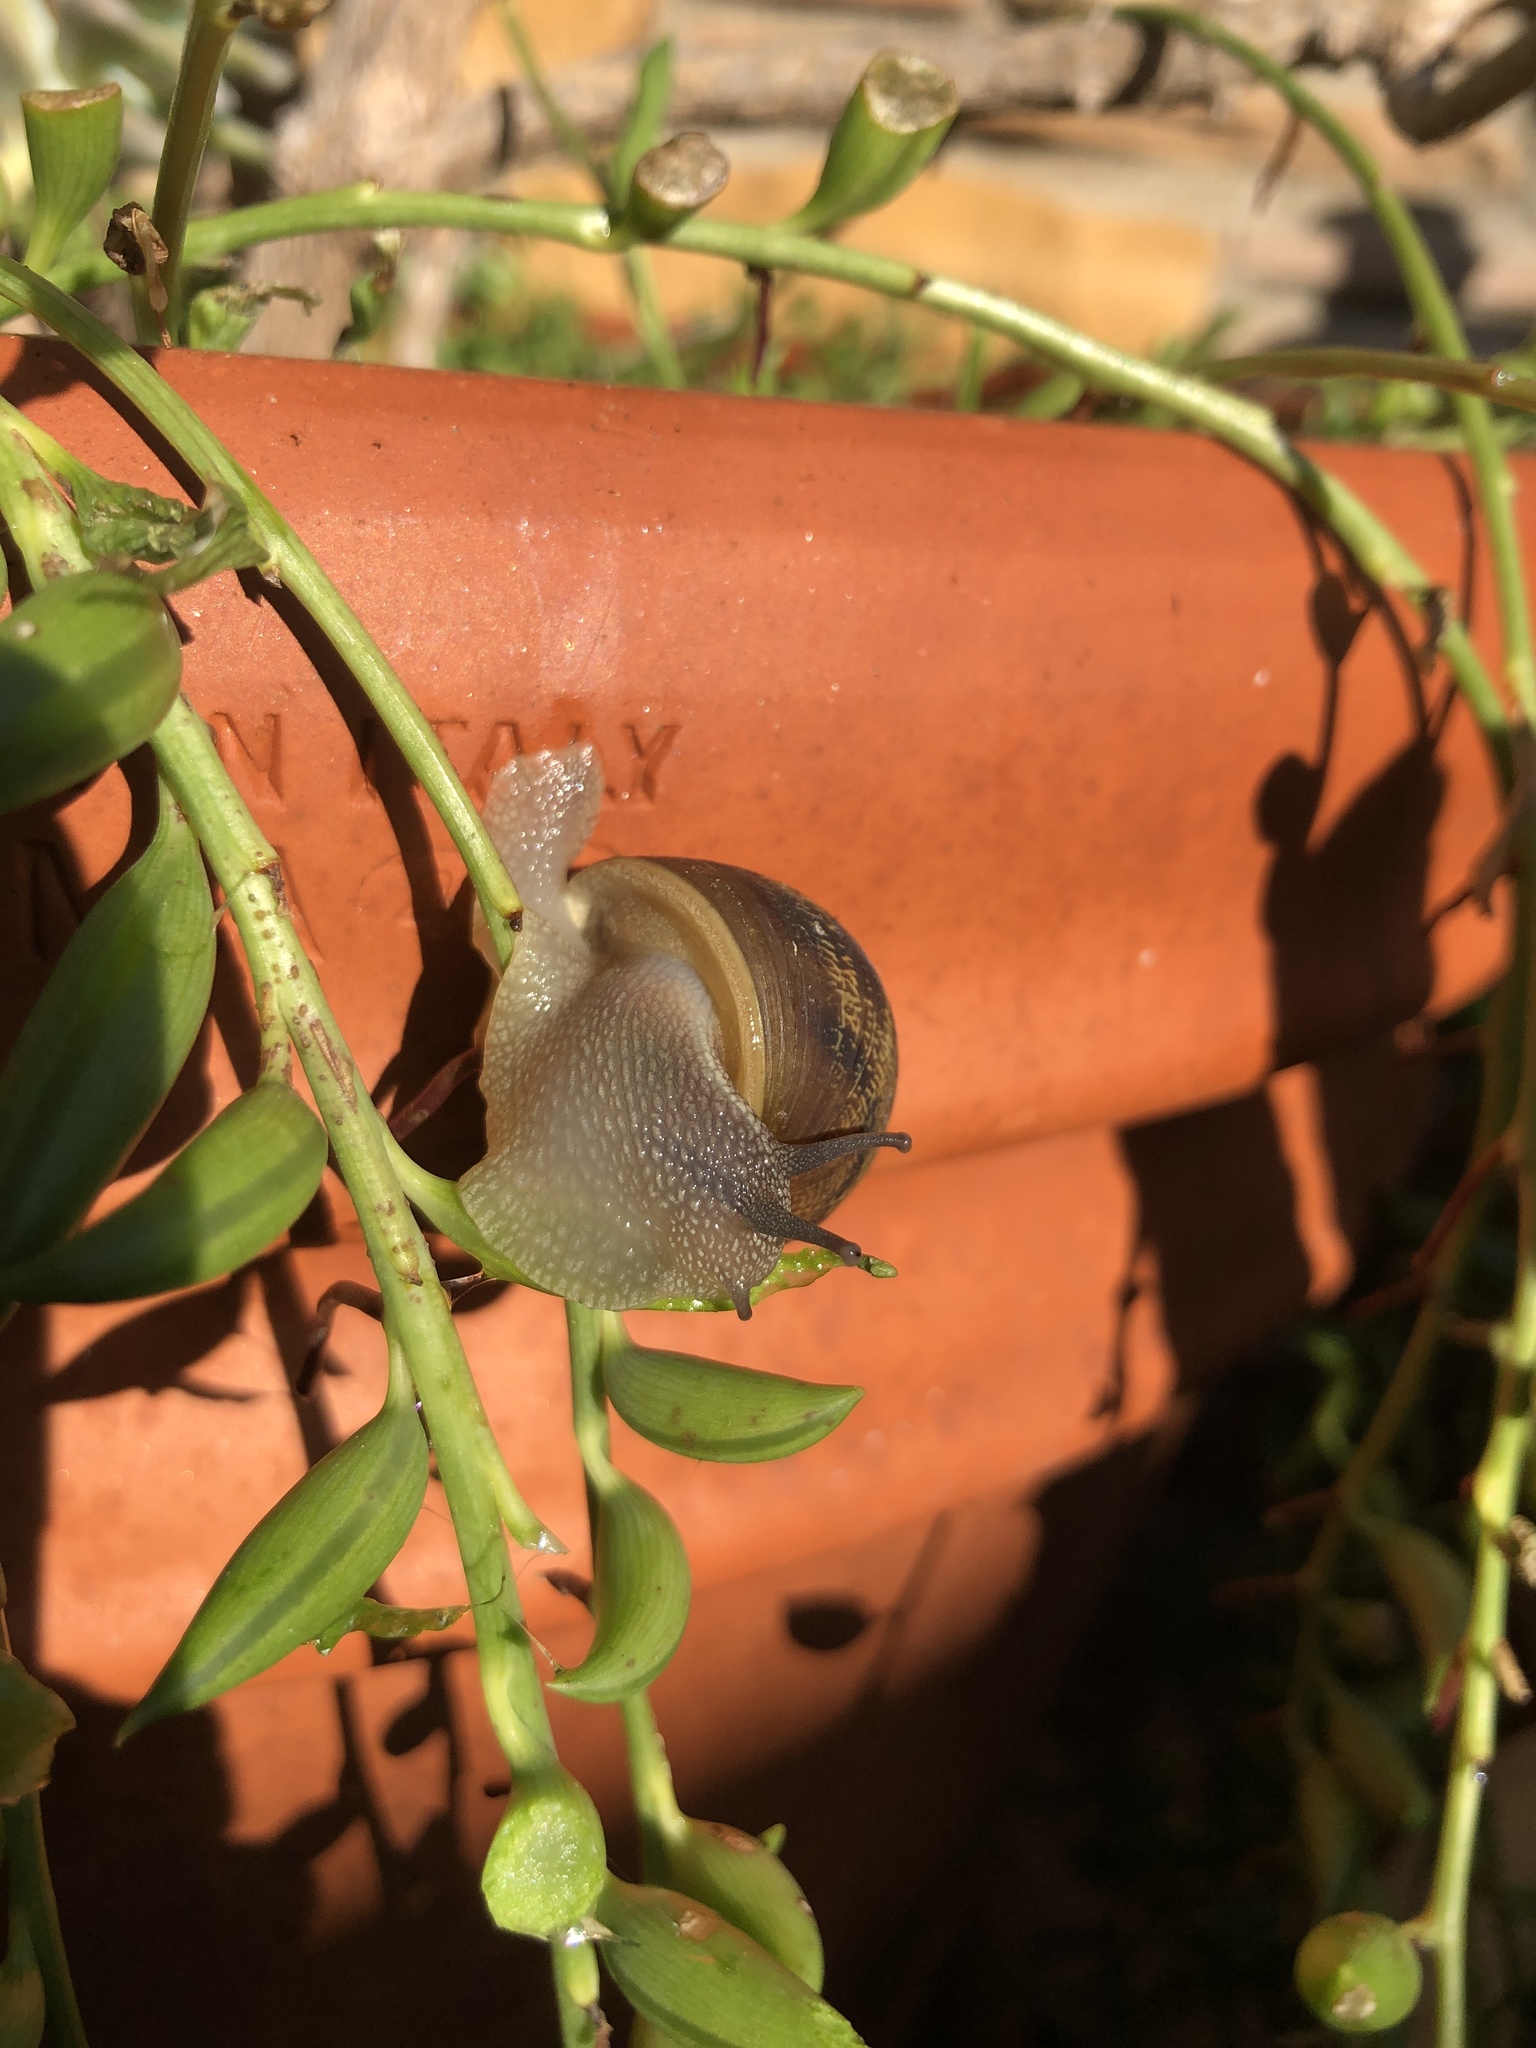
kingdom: Animalia
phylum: Mollusca
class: Gastropoda
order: Stylommatophora
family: Helicidae
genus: Cornu
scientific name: Cornu aspersum
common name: Brown garden snail
